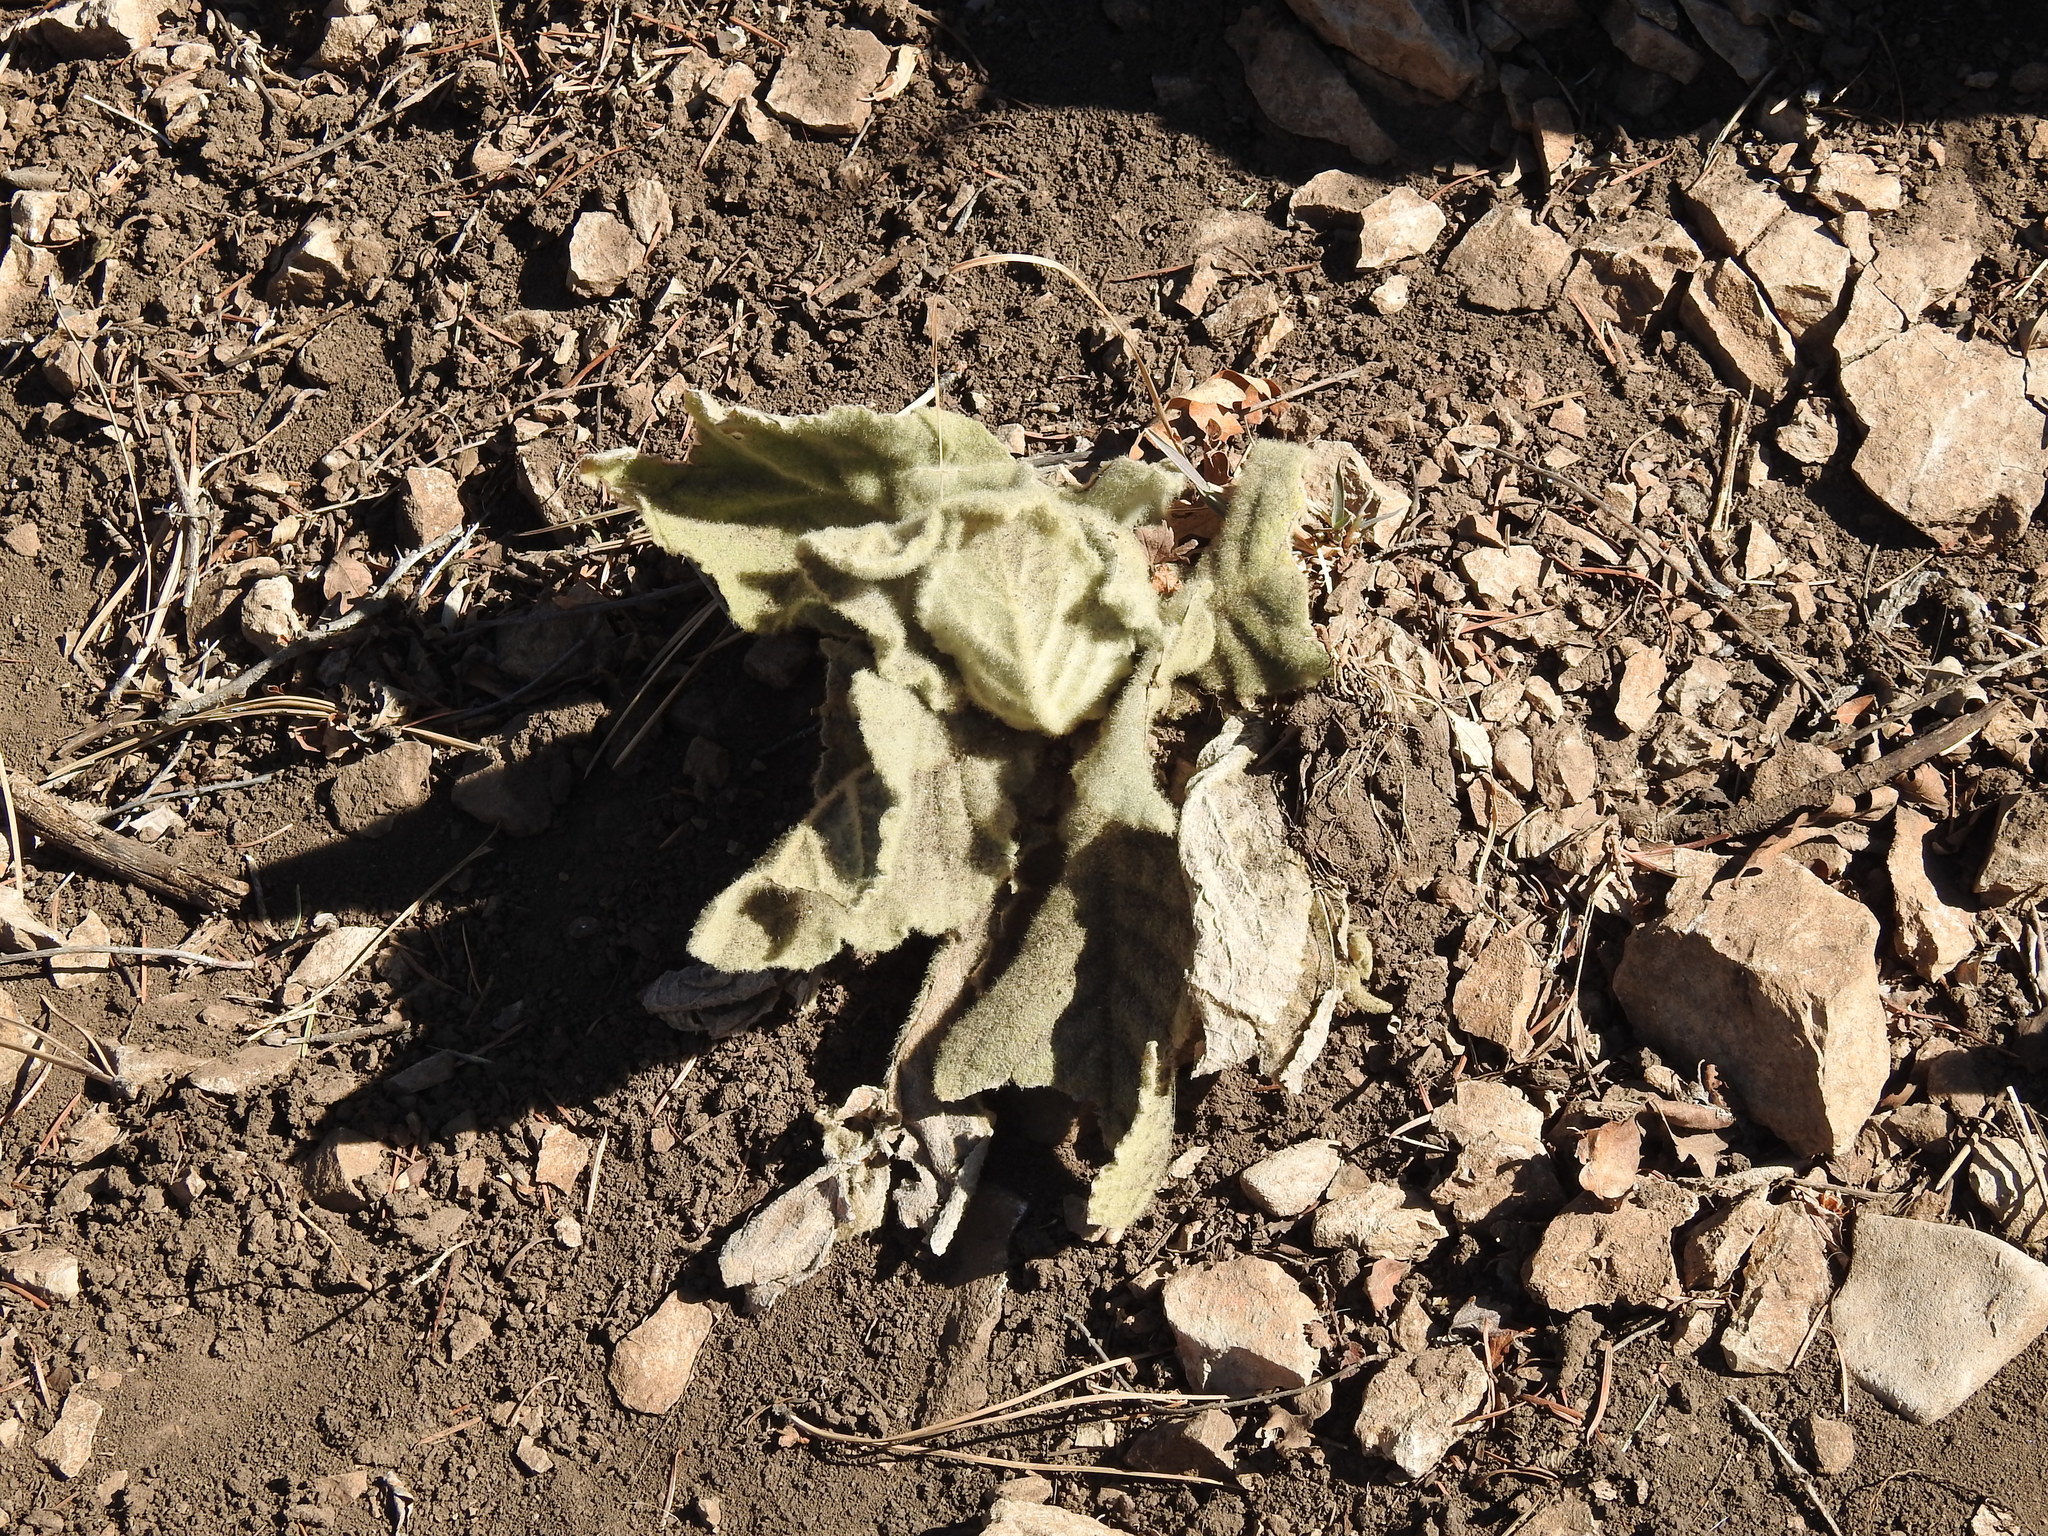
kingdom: Plantae
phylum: Tracheophyta
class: Magnoliopsida
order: Lamiales
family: Scrophulariaceae
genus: Verbascum
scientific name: Verbascum thapsus
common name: Common mullein
